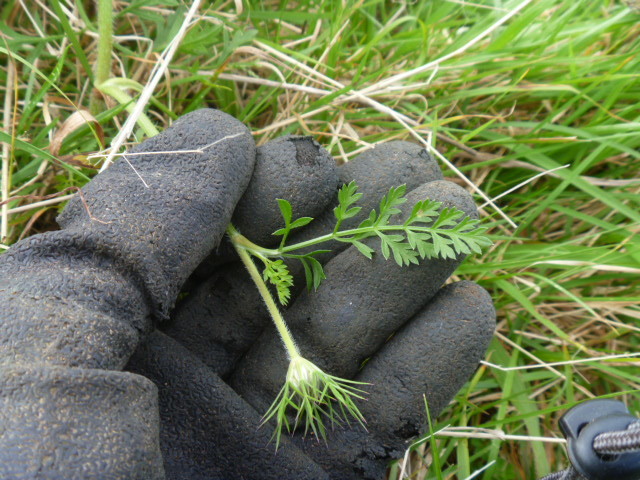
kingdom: Plantae
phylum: Tracheophyta
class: Magnoliopsida
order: Apiales
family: Apiaceae
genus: Daucus
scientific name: Daucus carota
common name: Wild carrot
